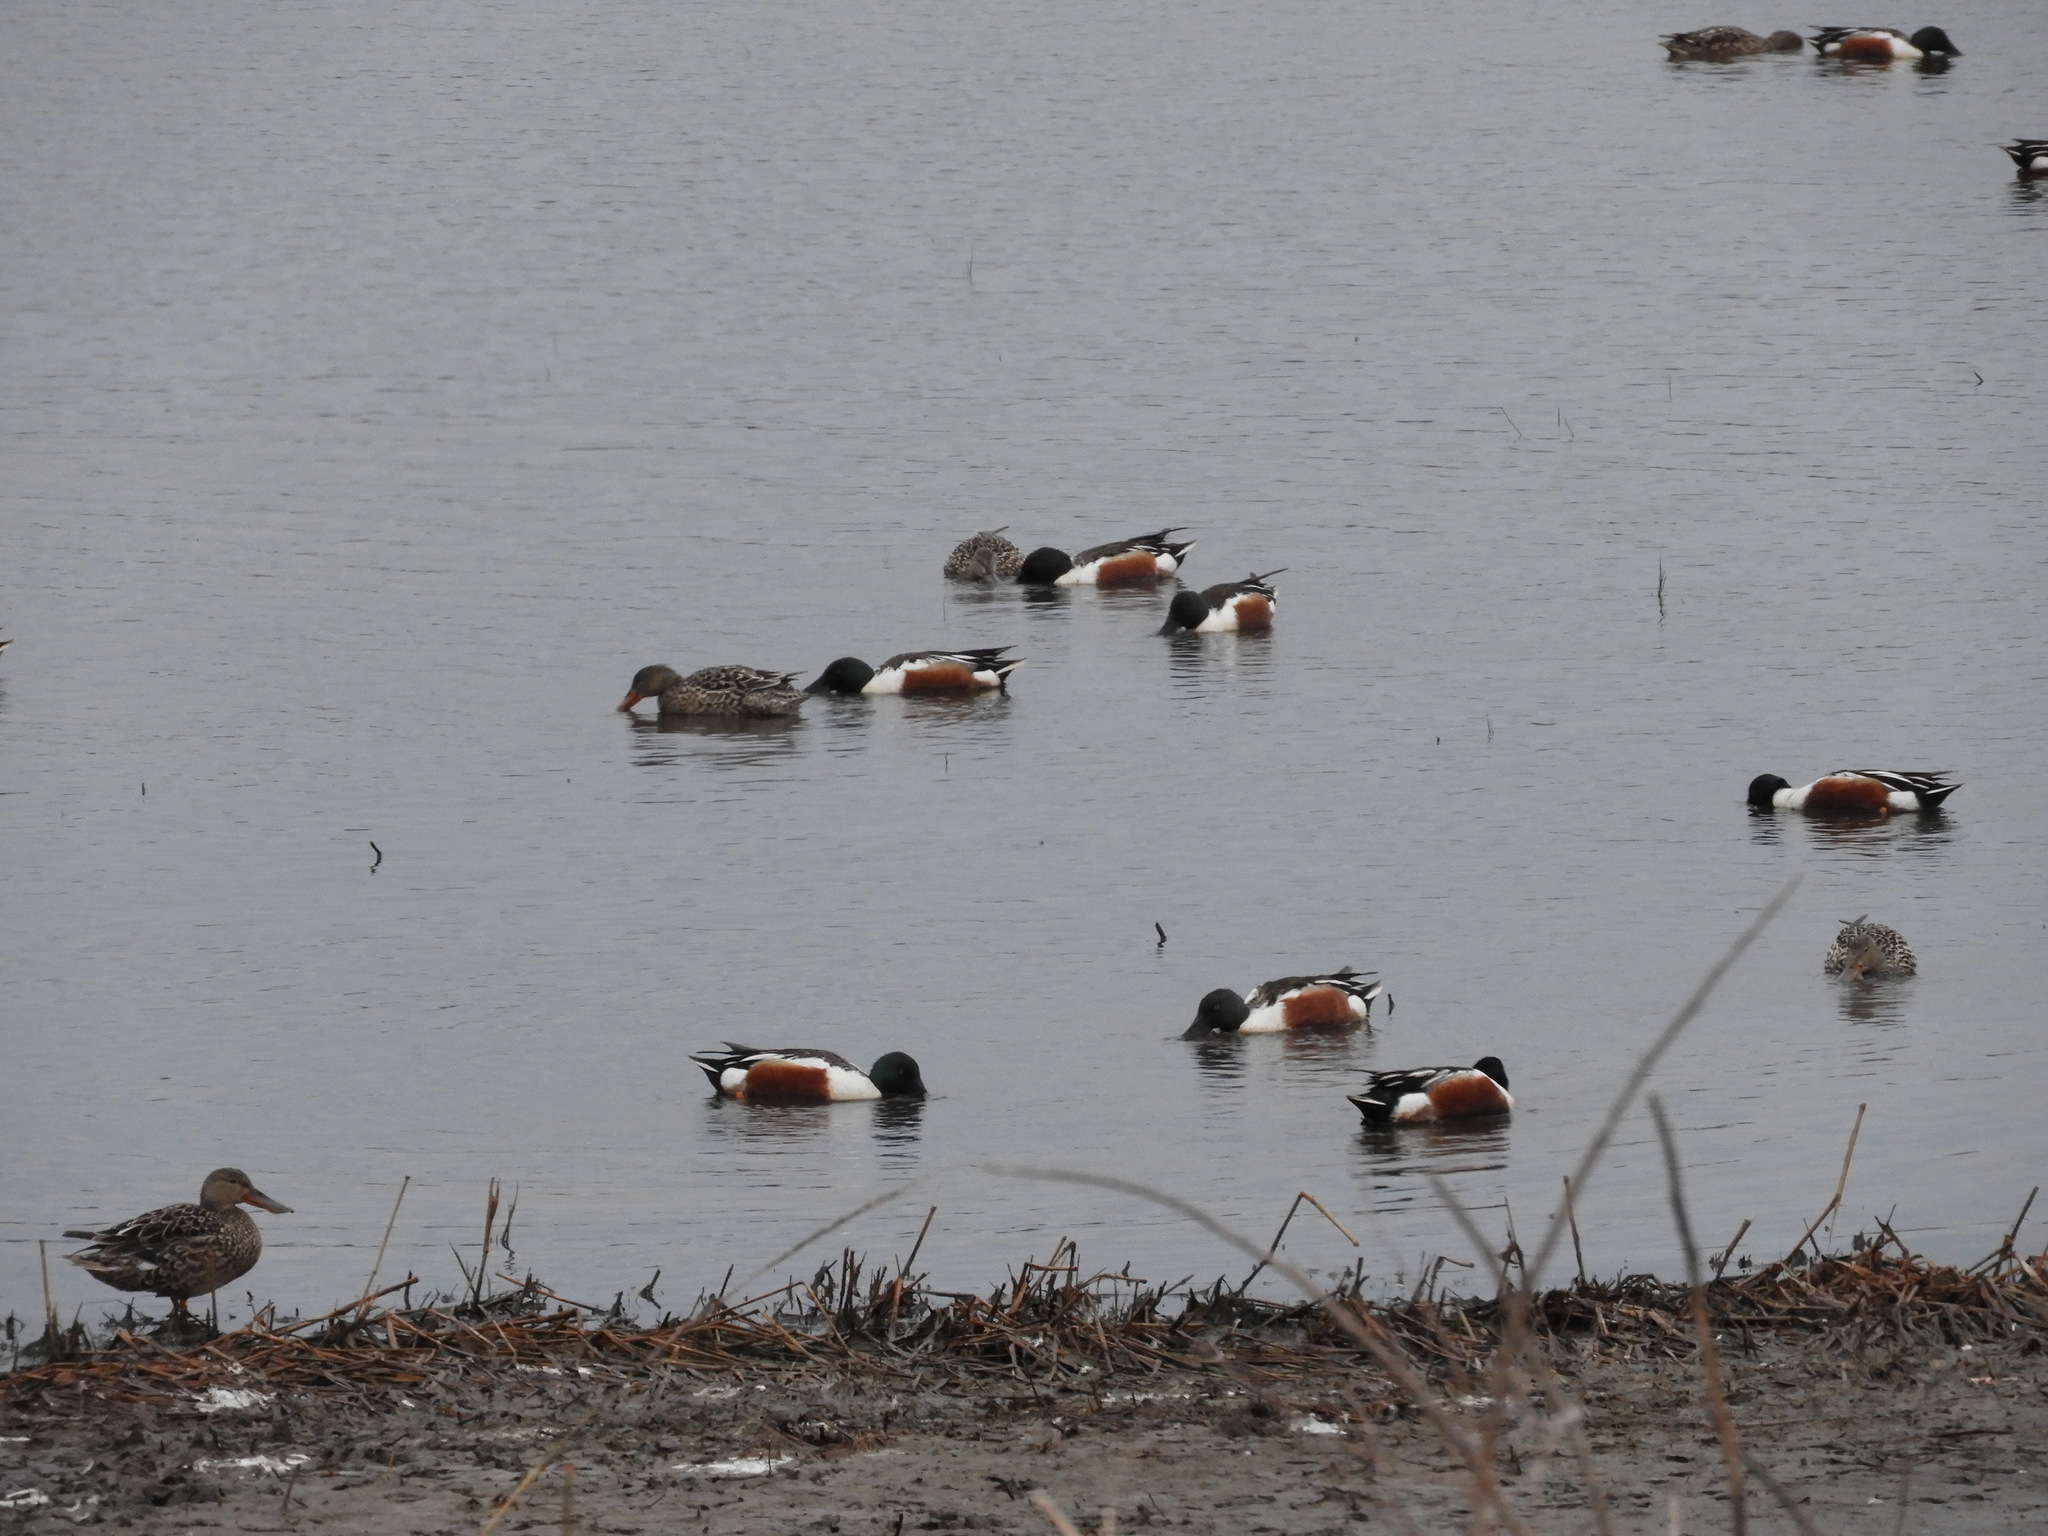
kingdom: Animalia
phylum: Chordata
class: Aves
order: Anseriformes
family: Anatidae
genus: Spatula
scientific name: Spatula clypeata
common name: Northern shoveler
